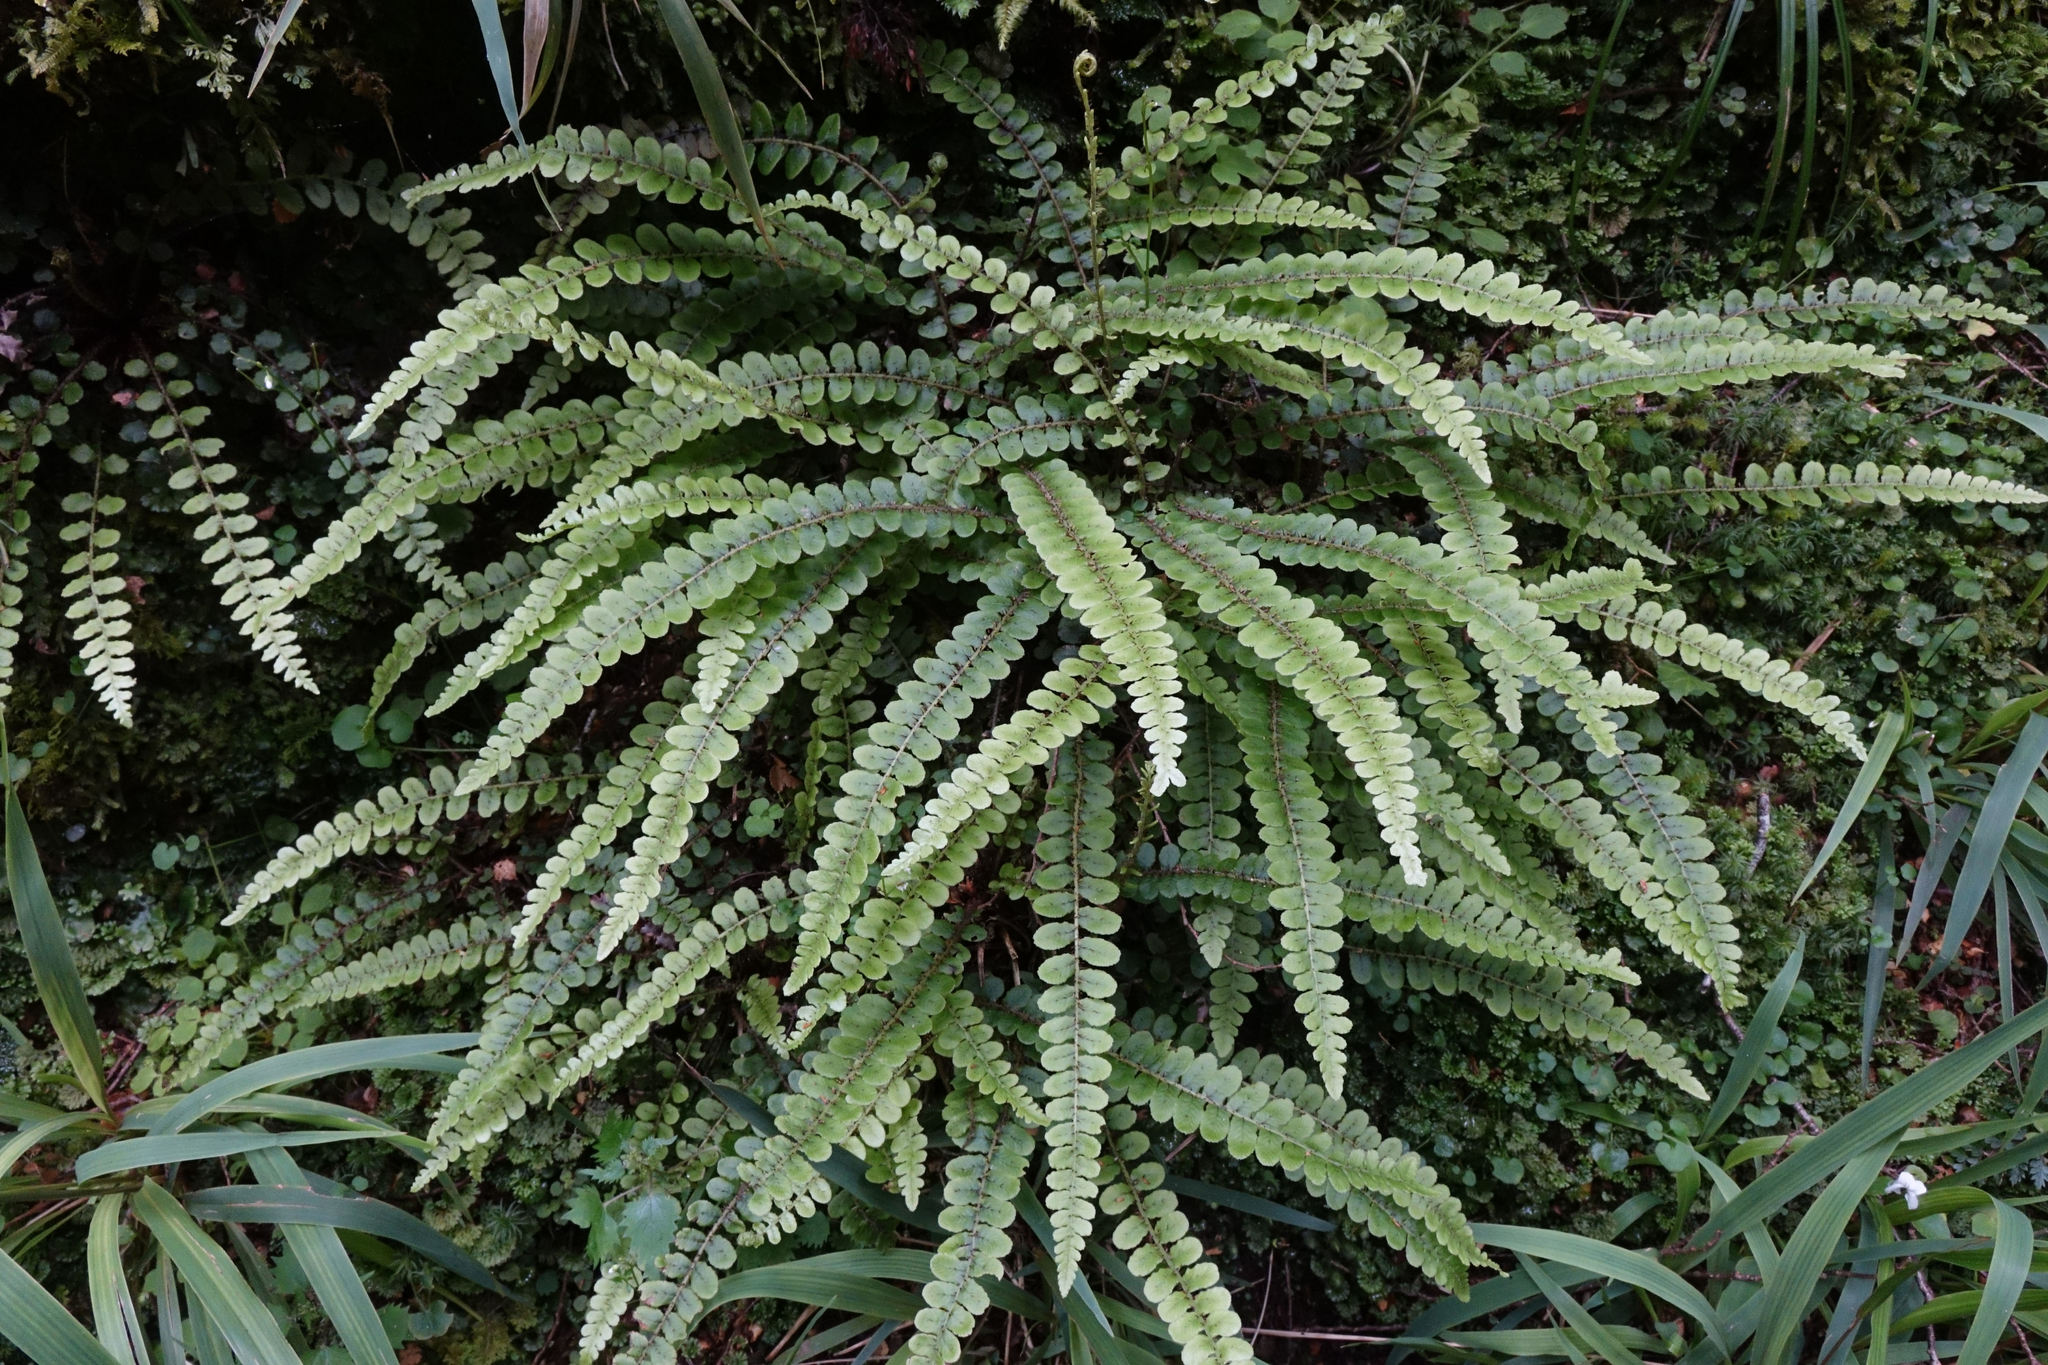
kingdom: Plantae
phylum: Tracheophyta
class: Polypodiopsida
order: Polypodiales
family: Blechnaceae
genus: Cranfillia
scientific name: Cranfillia fluviatilis
